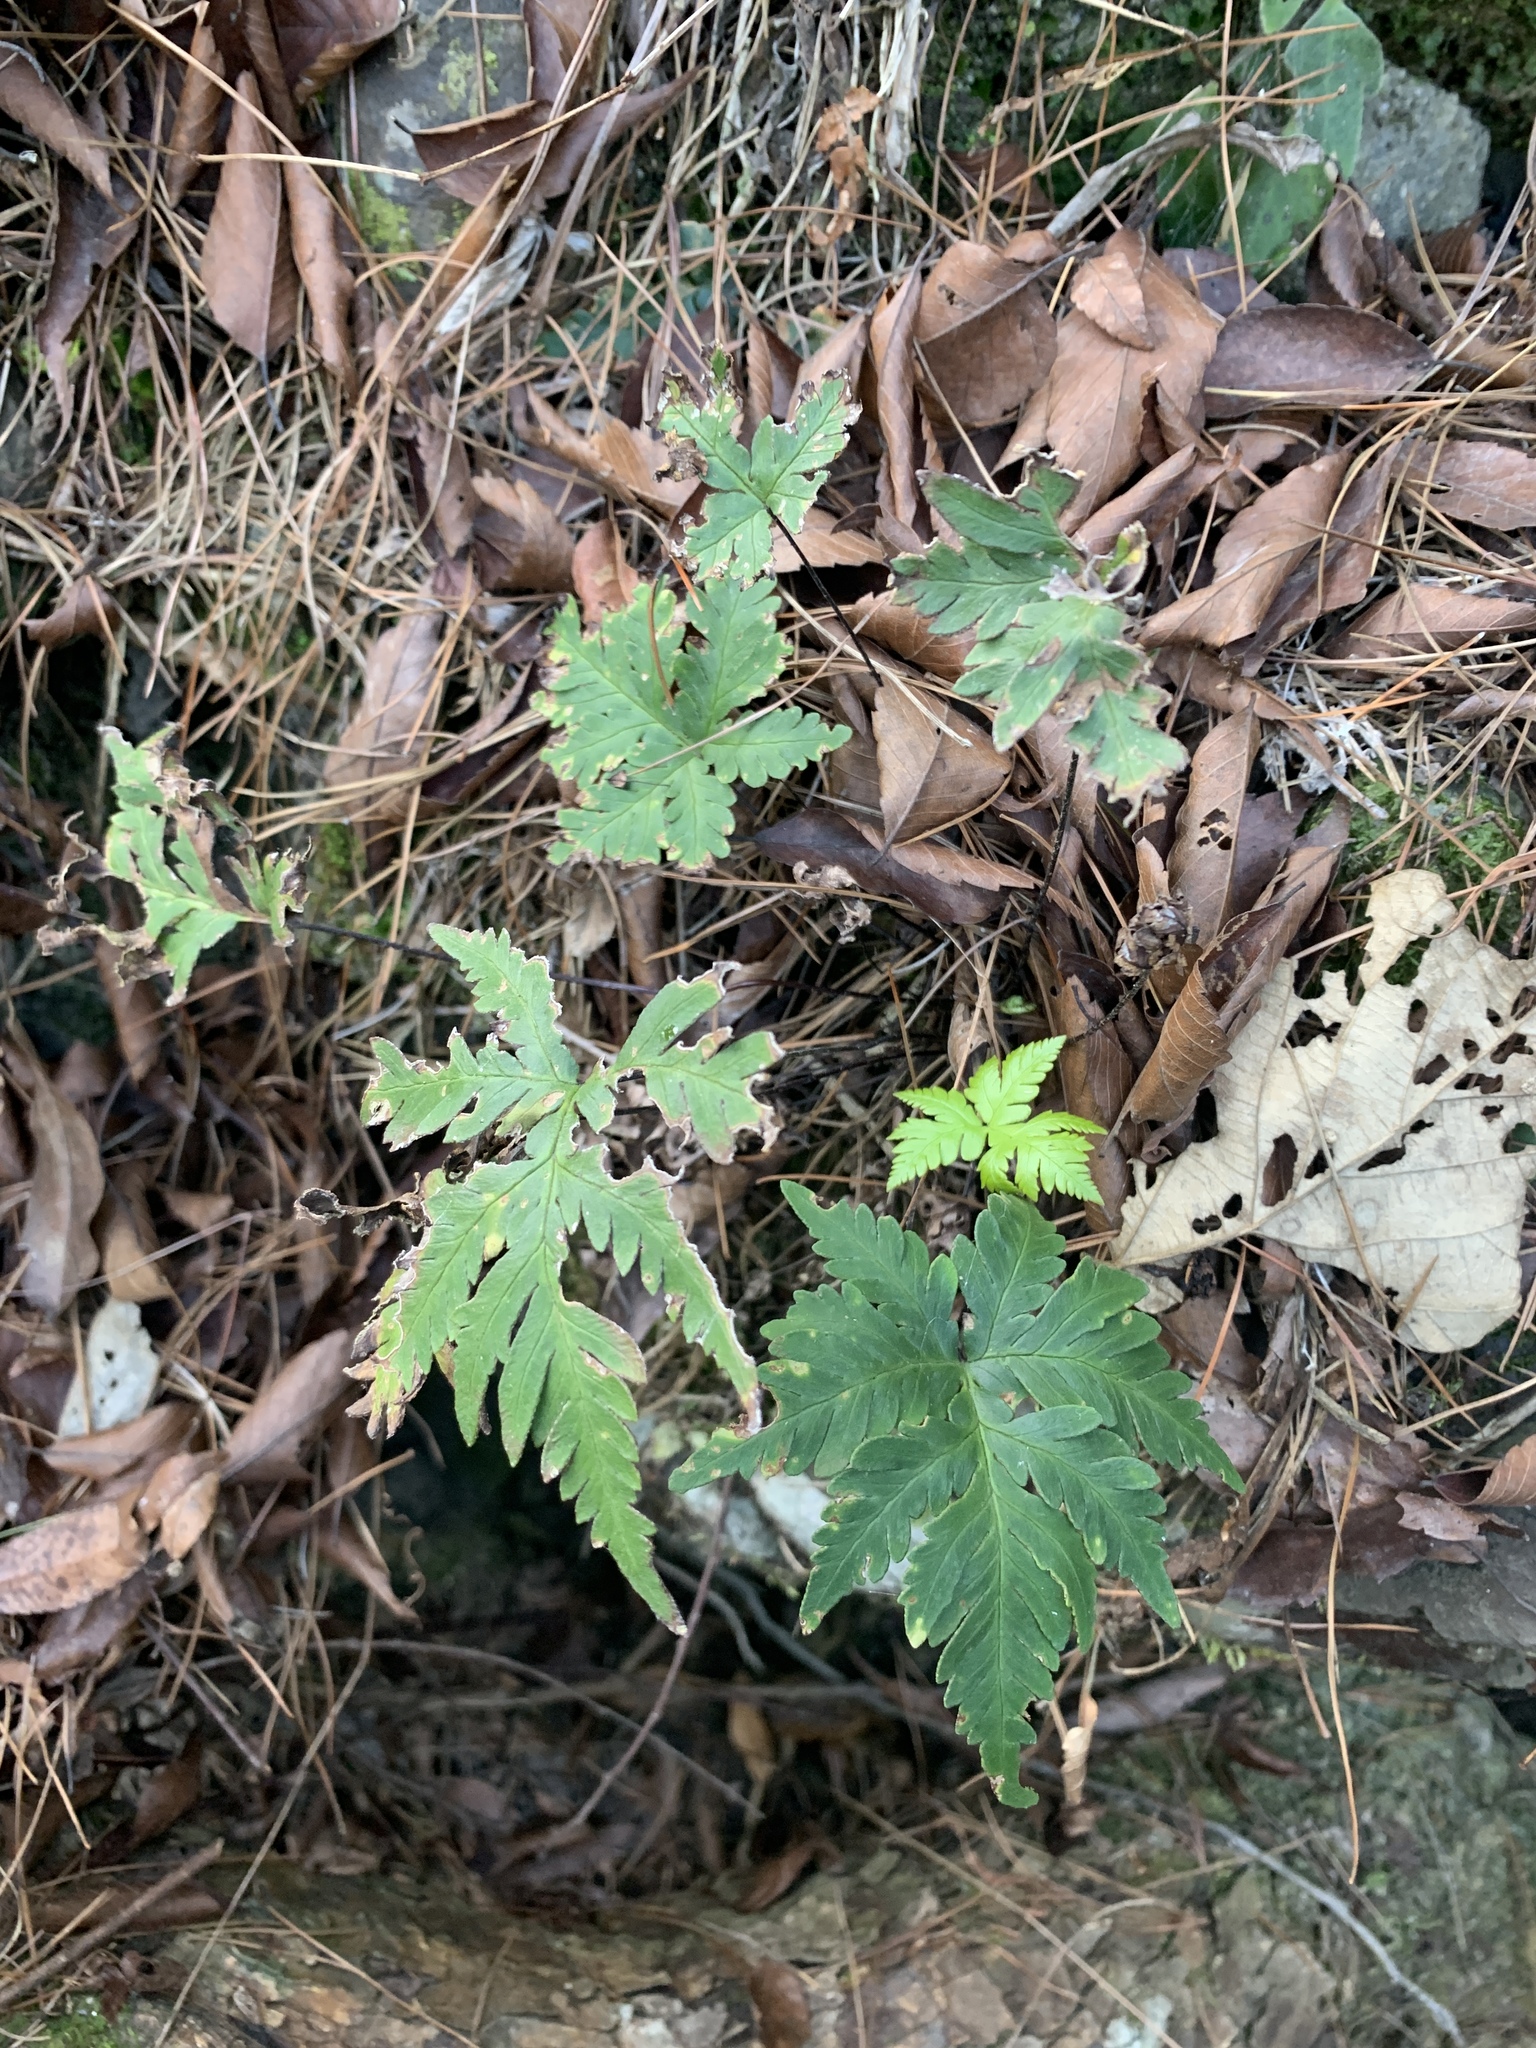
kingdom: Plantae
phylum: Tracheophyta
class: Polypodiopsida
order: Polypodiales
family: Pteridaceae
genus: Doryopteris
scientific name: Doryopteris concolor
